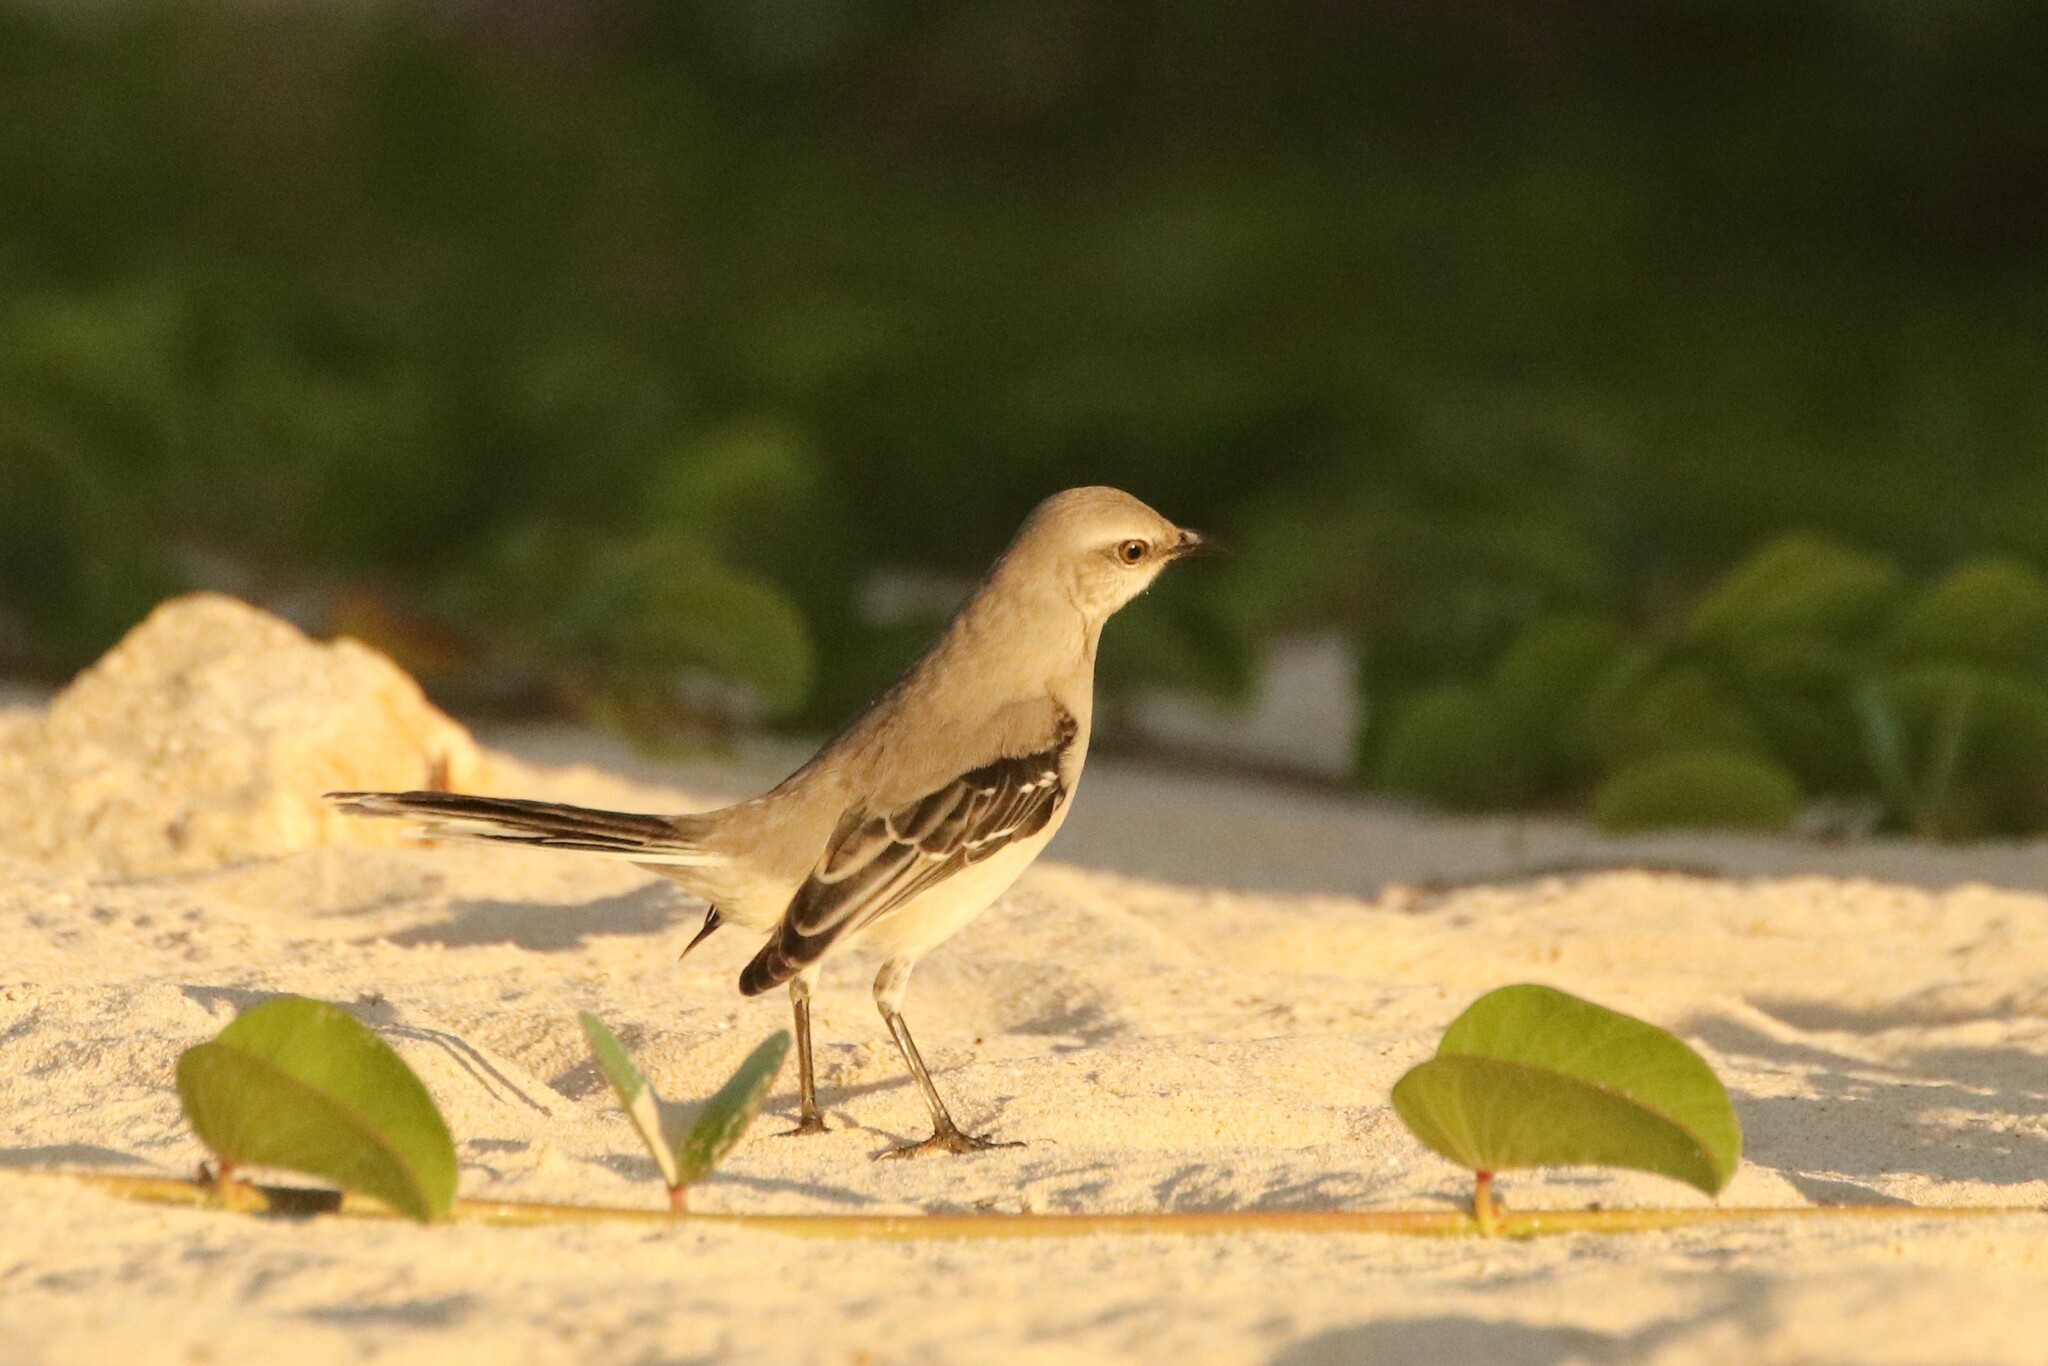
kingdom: Animalia
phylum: Chordata
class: Aves
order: Passeriformes
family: Mimidae
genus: Mimus
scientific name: Mimus gilvus
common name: Tropical mockingbird
